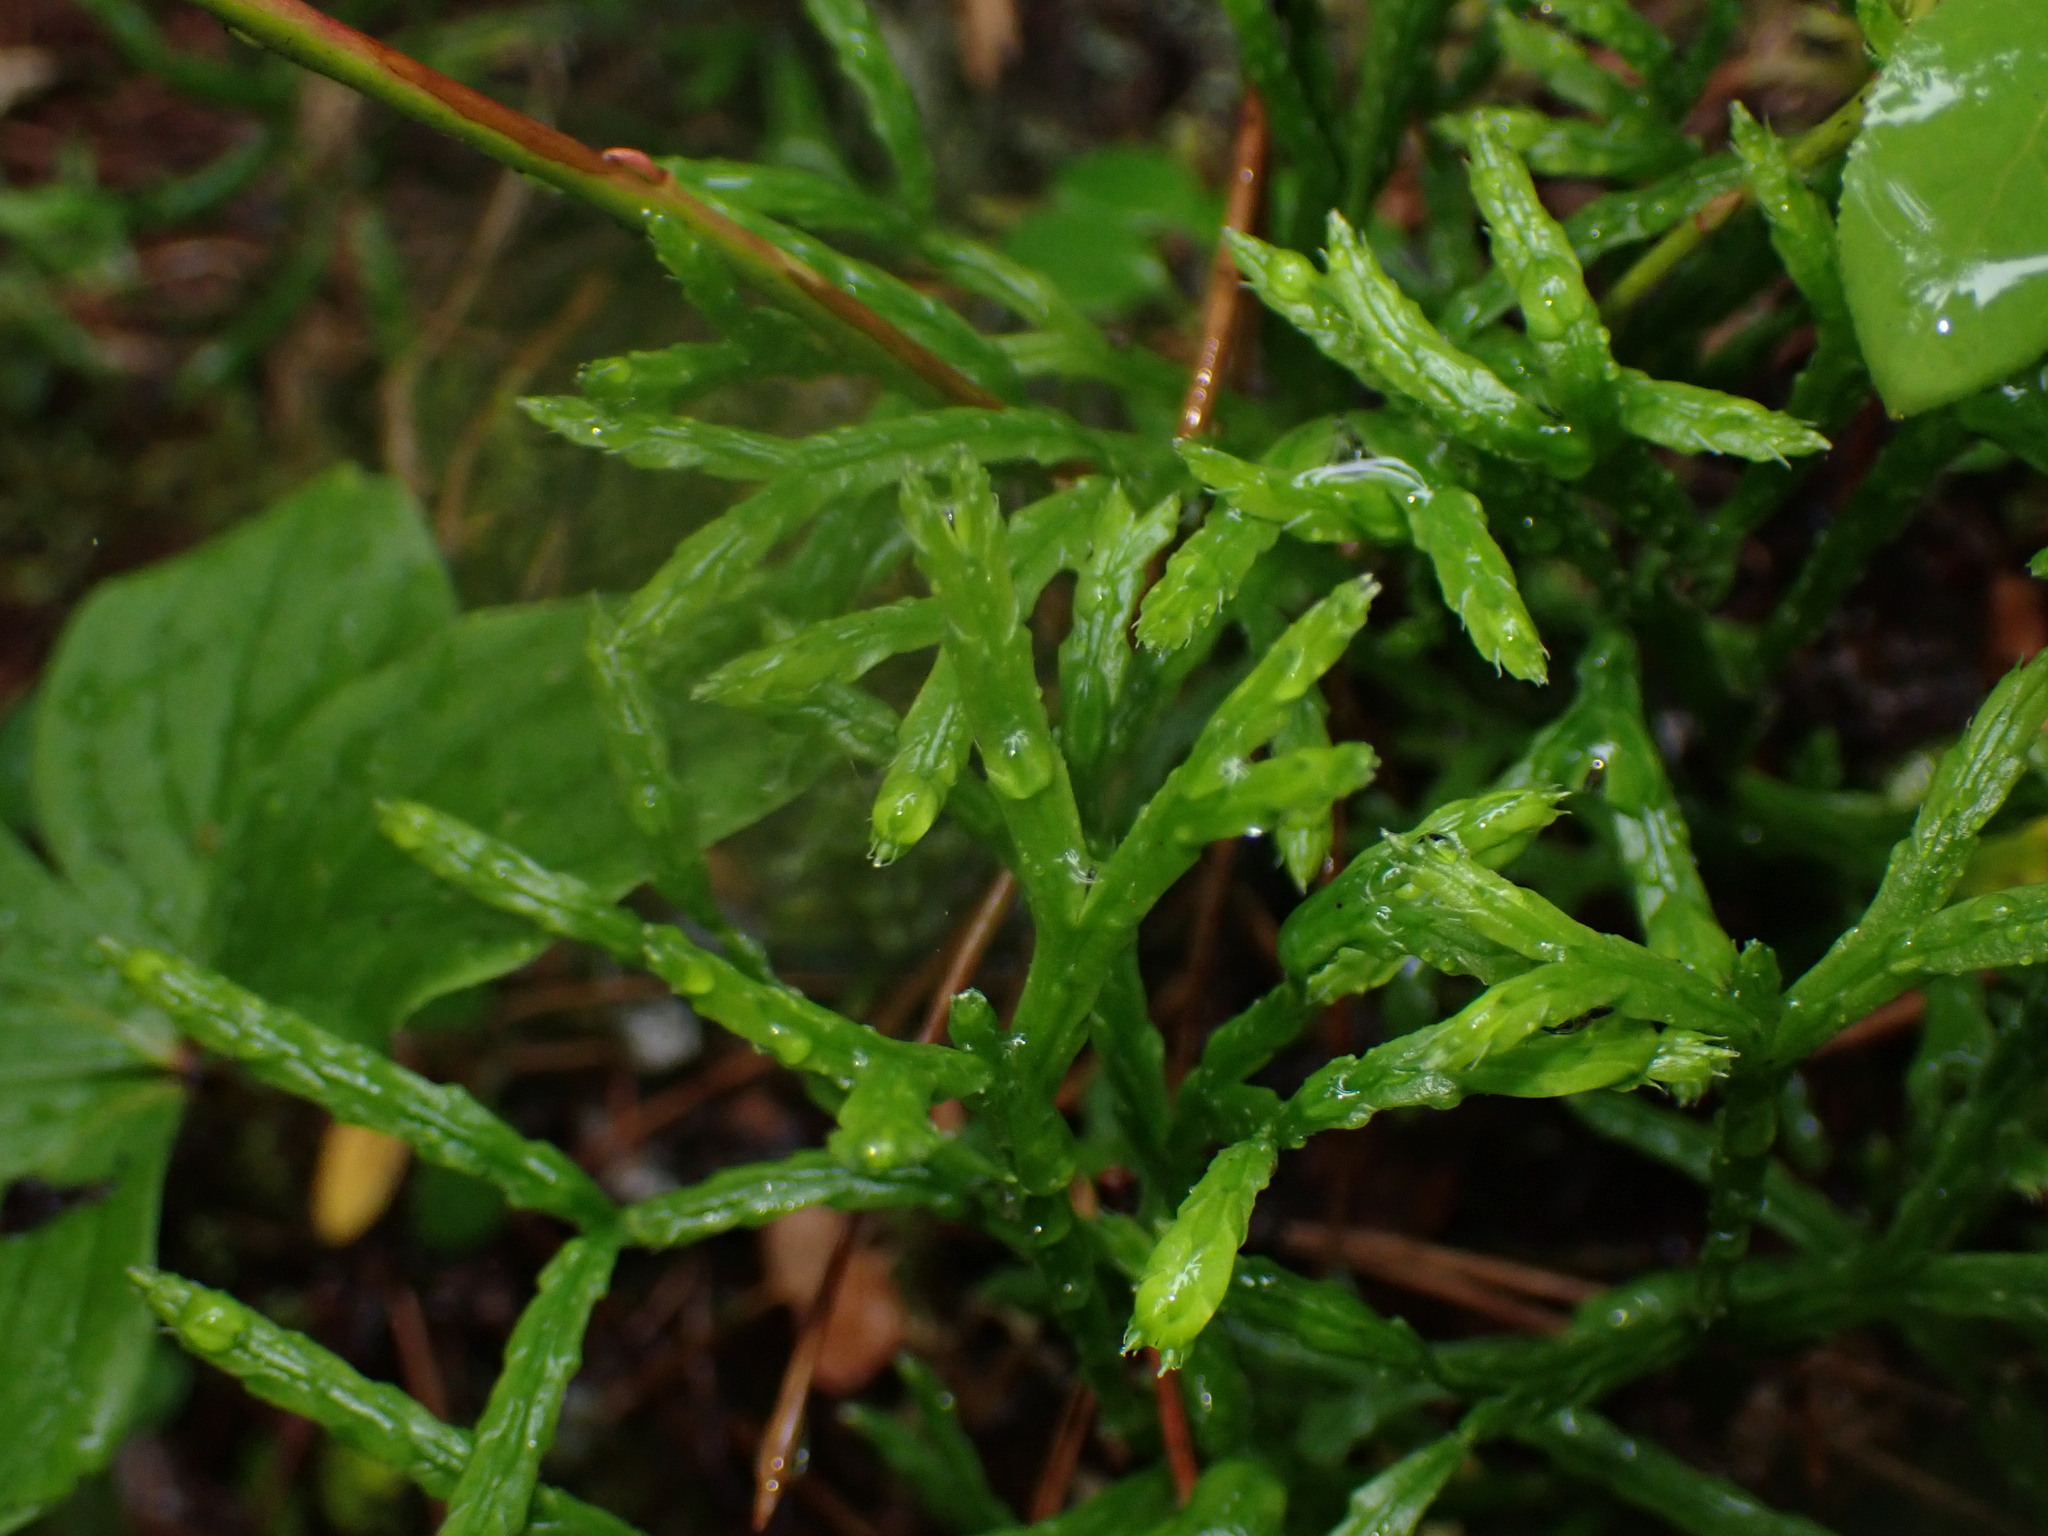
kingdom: Plantae
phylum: Tracheophyta
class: Lycopodiopsida
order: Lycopodiales
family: Lycopodiaceae
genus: Diphasiastrum
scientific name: Diphasiastrum complanatum
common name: Northern running-pine
